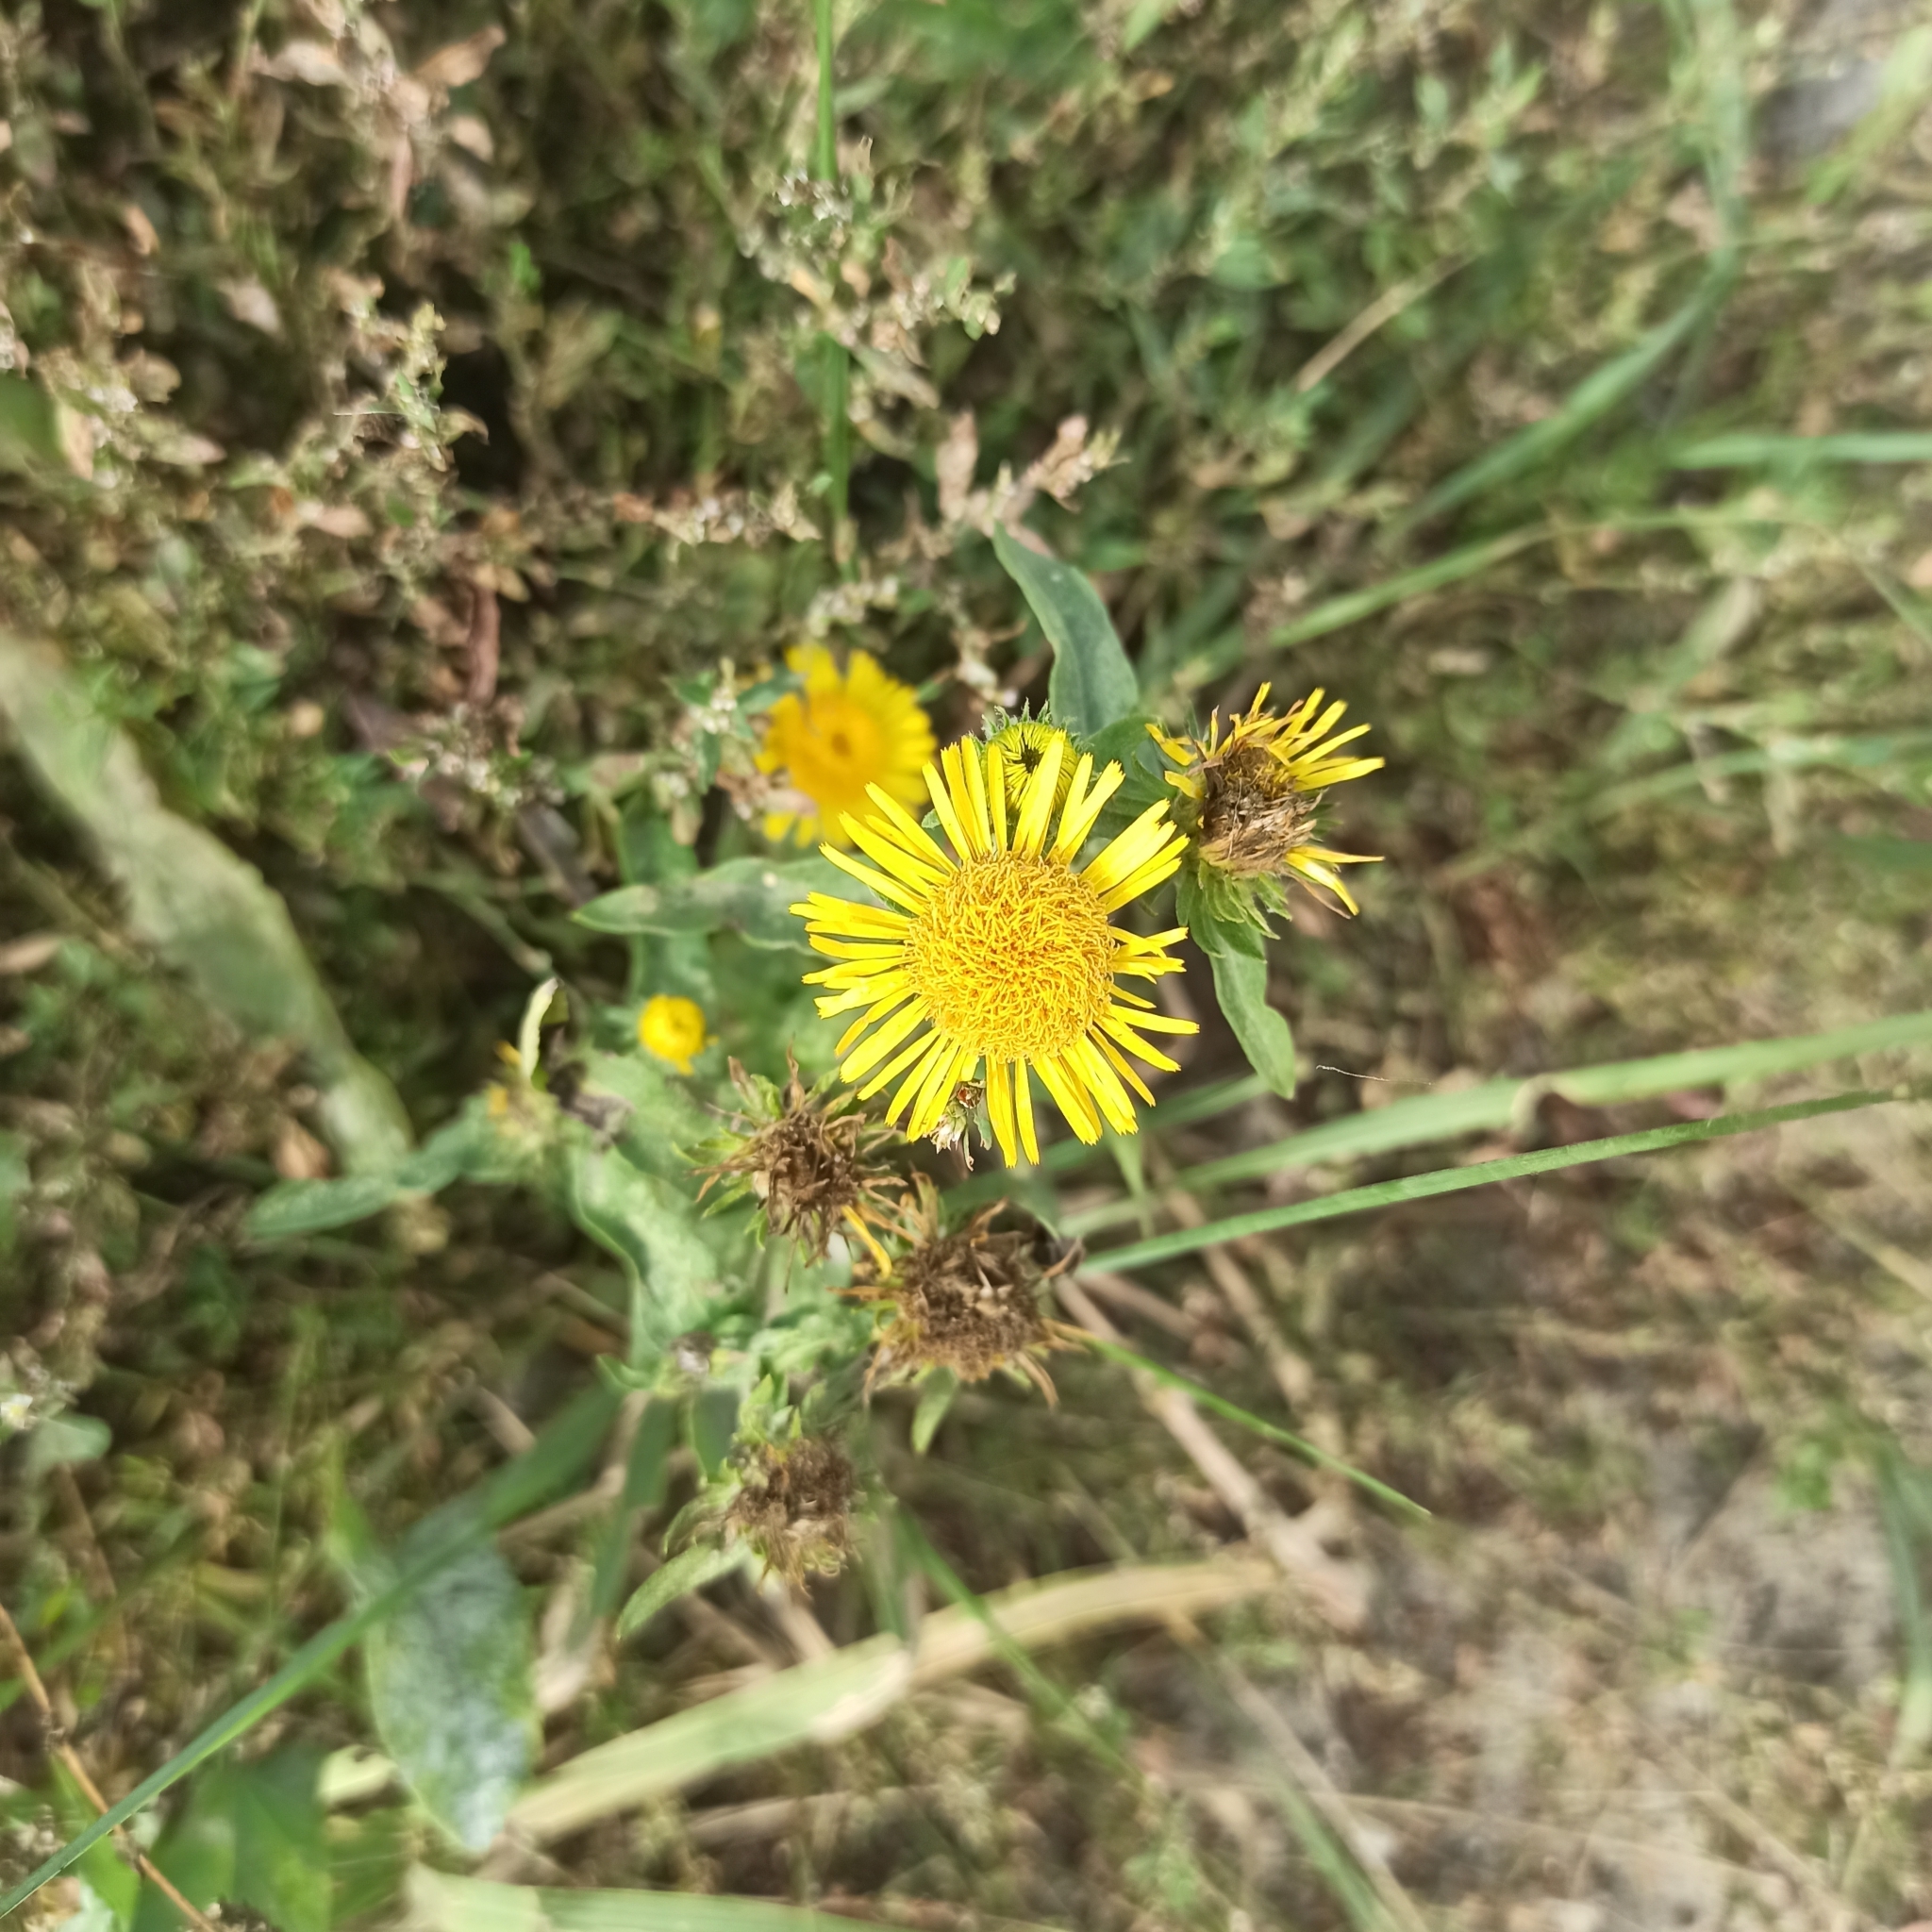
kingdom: Plantae
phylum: Tracheophyta
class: Magnoliopsida
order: Asterales
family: Asteraceae
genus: Pentanema
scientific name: Pentanema britannicum
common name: British elecampane
